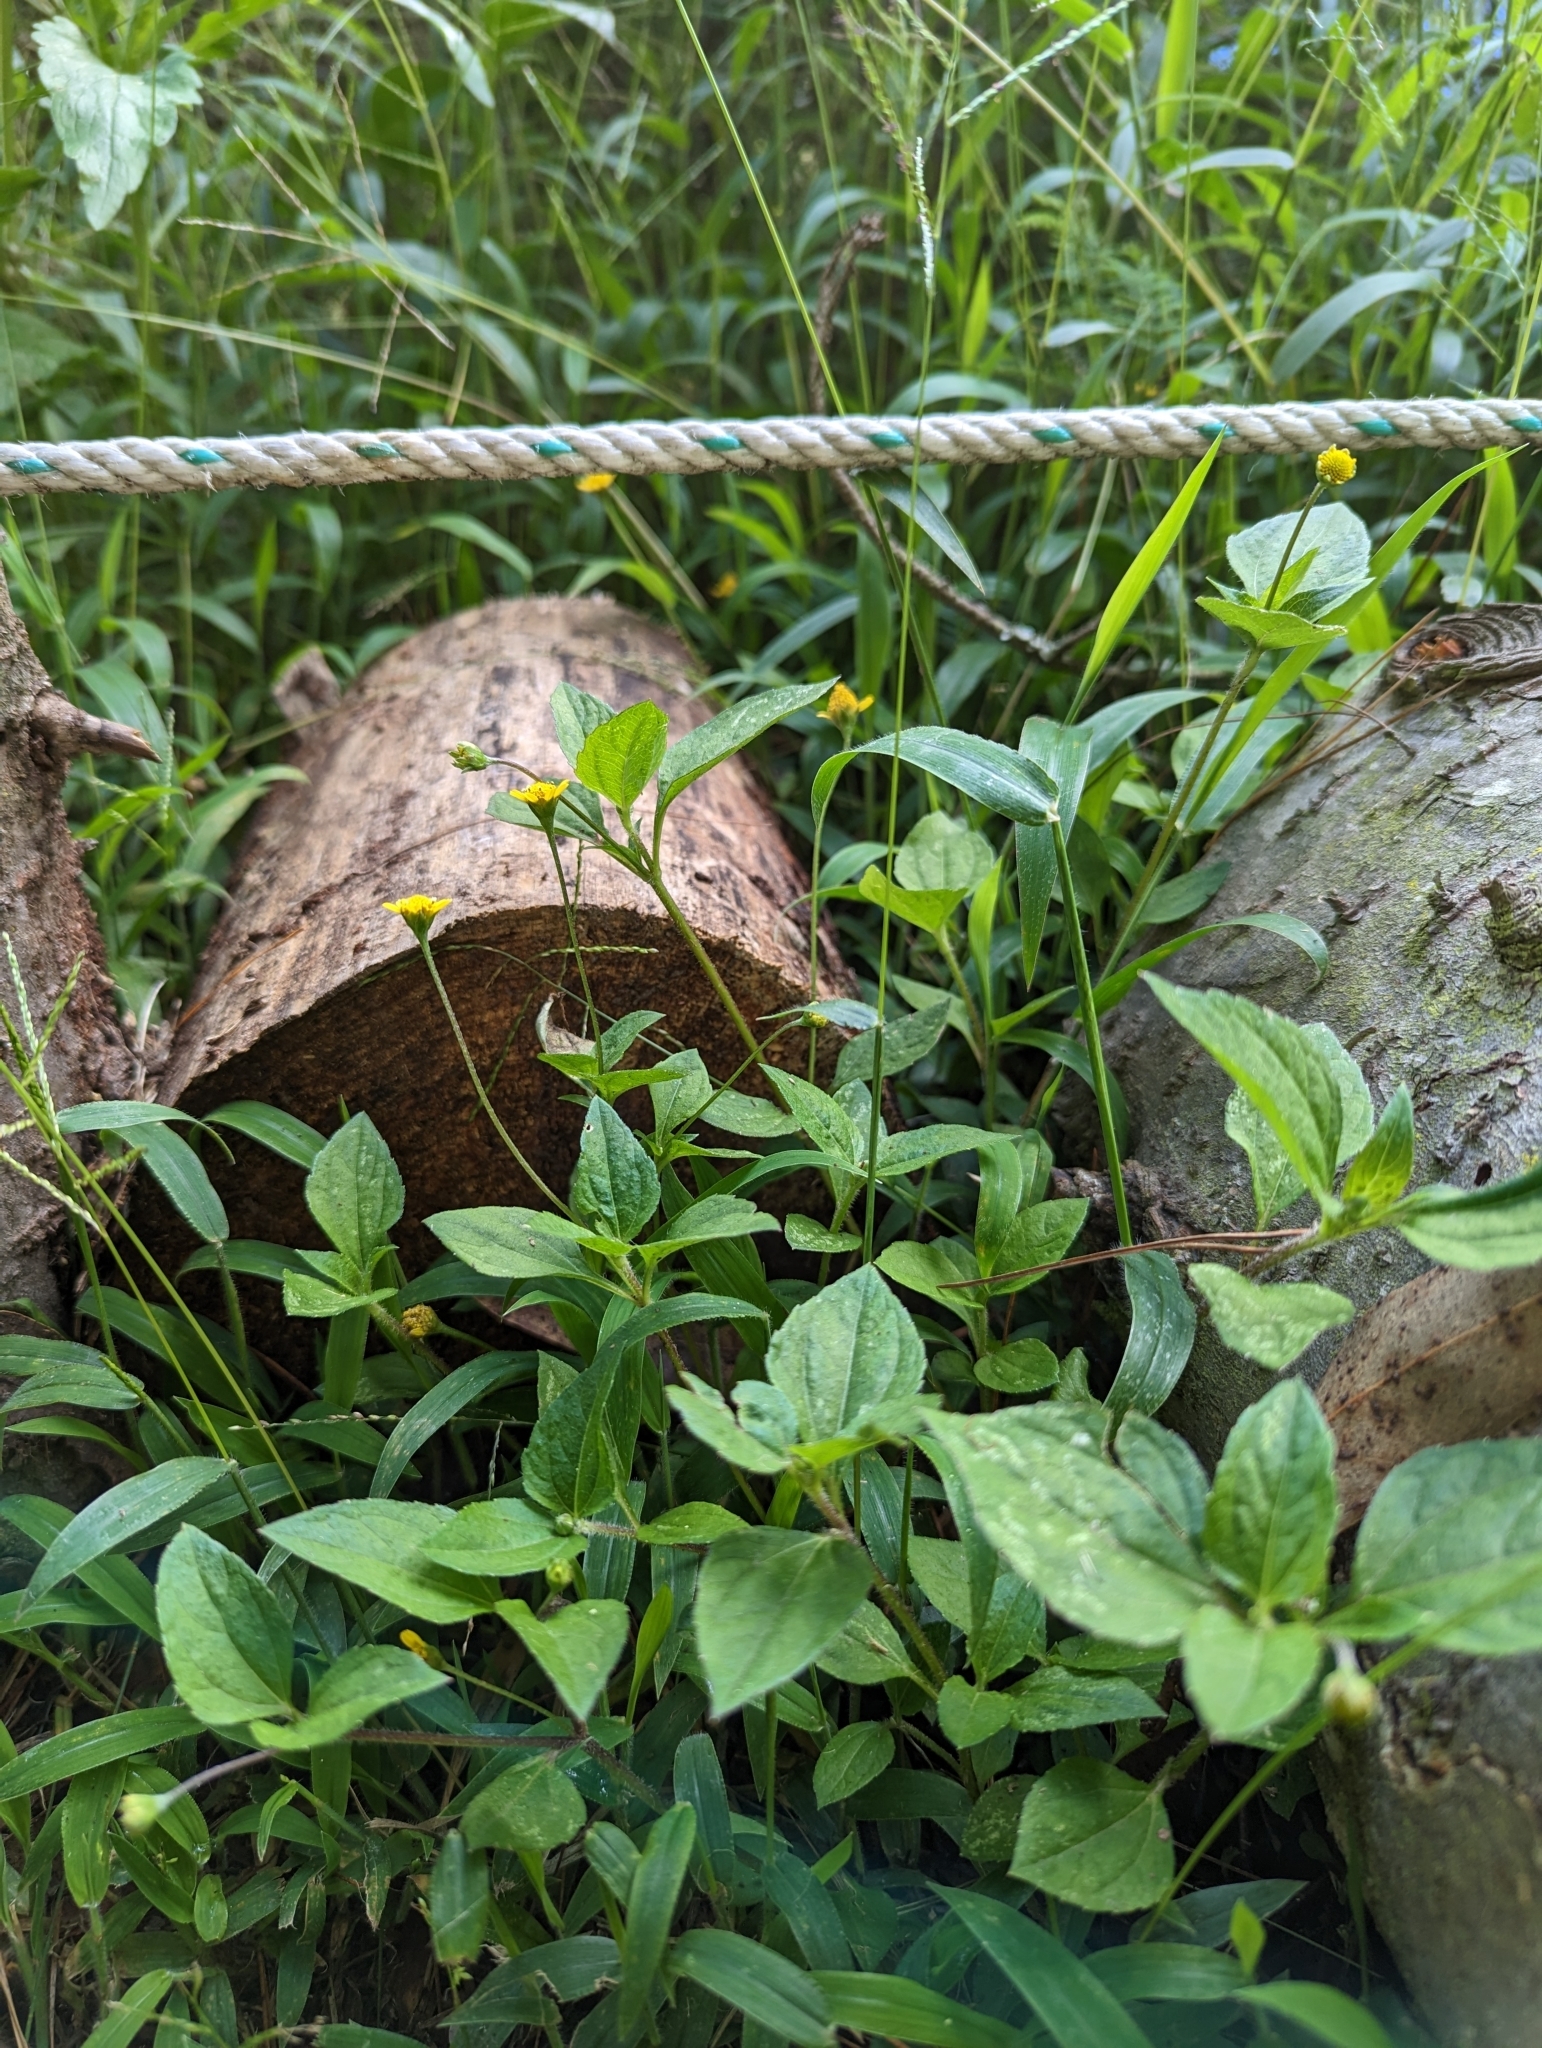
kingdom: Plantae
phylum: Tracheophyta
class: Magnoliopsida
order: Asterales
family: Asteraceae
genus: Jaegeria
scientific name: Jaegeria hirta
